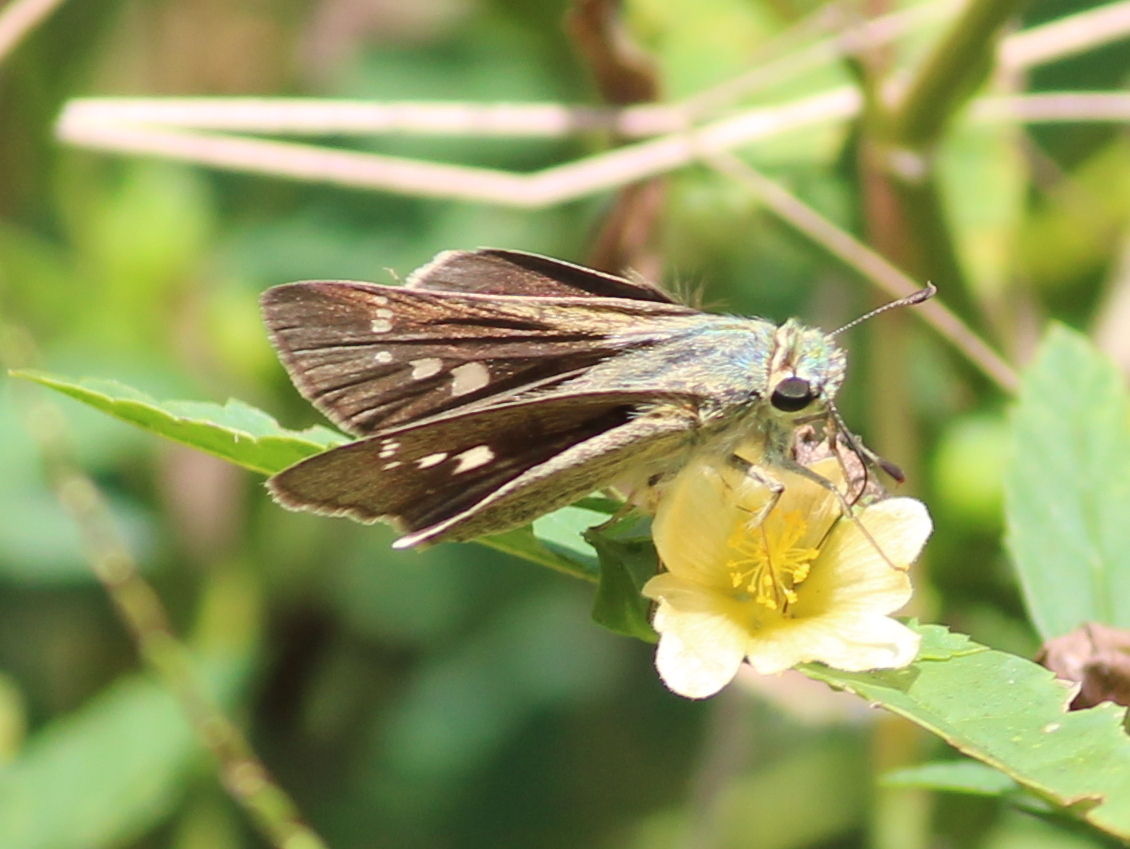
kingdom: Animalia
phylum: Arthropoda
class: Insecta
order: Lepidoptera
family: Hesperiidae
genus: Parnara
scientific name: Parnara naso
